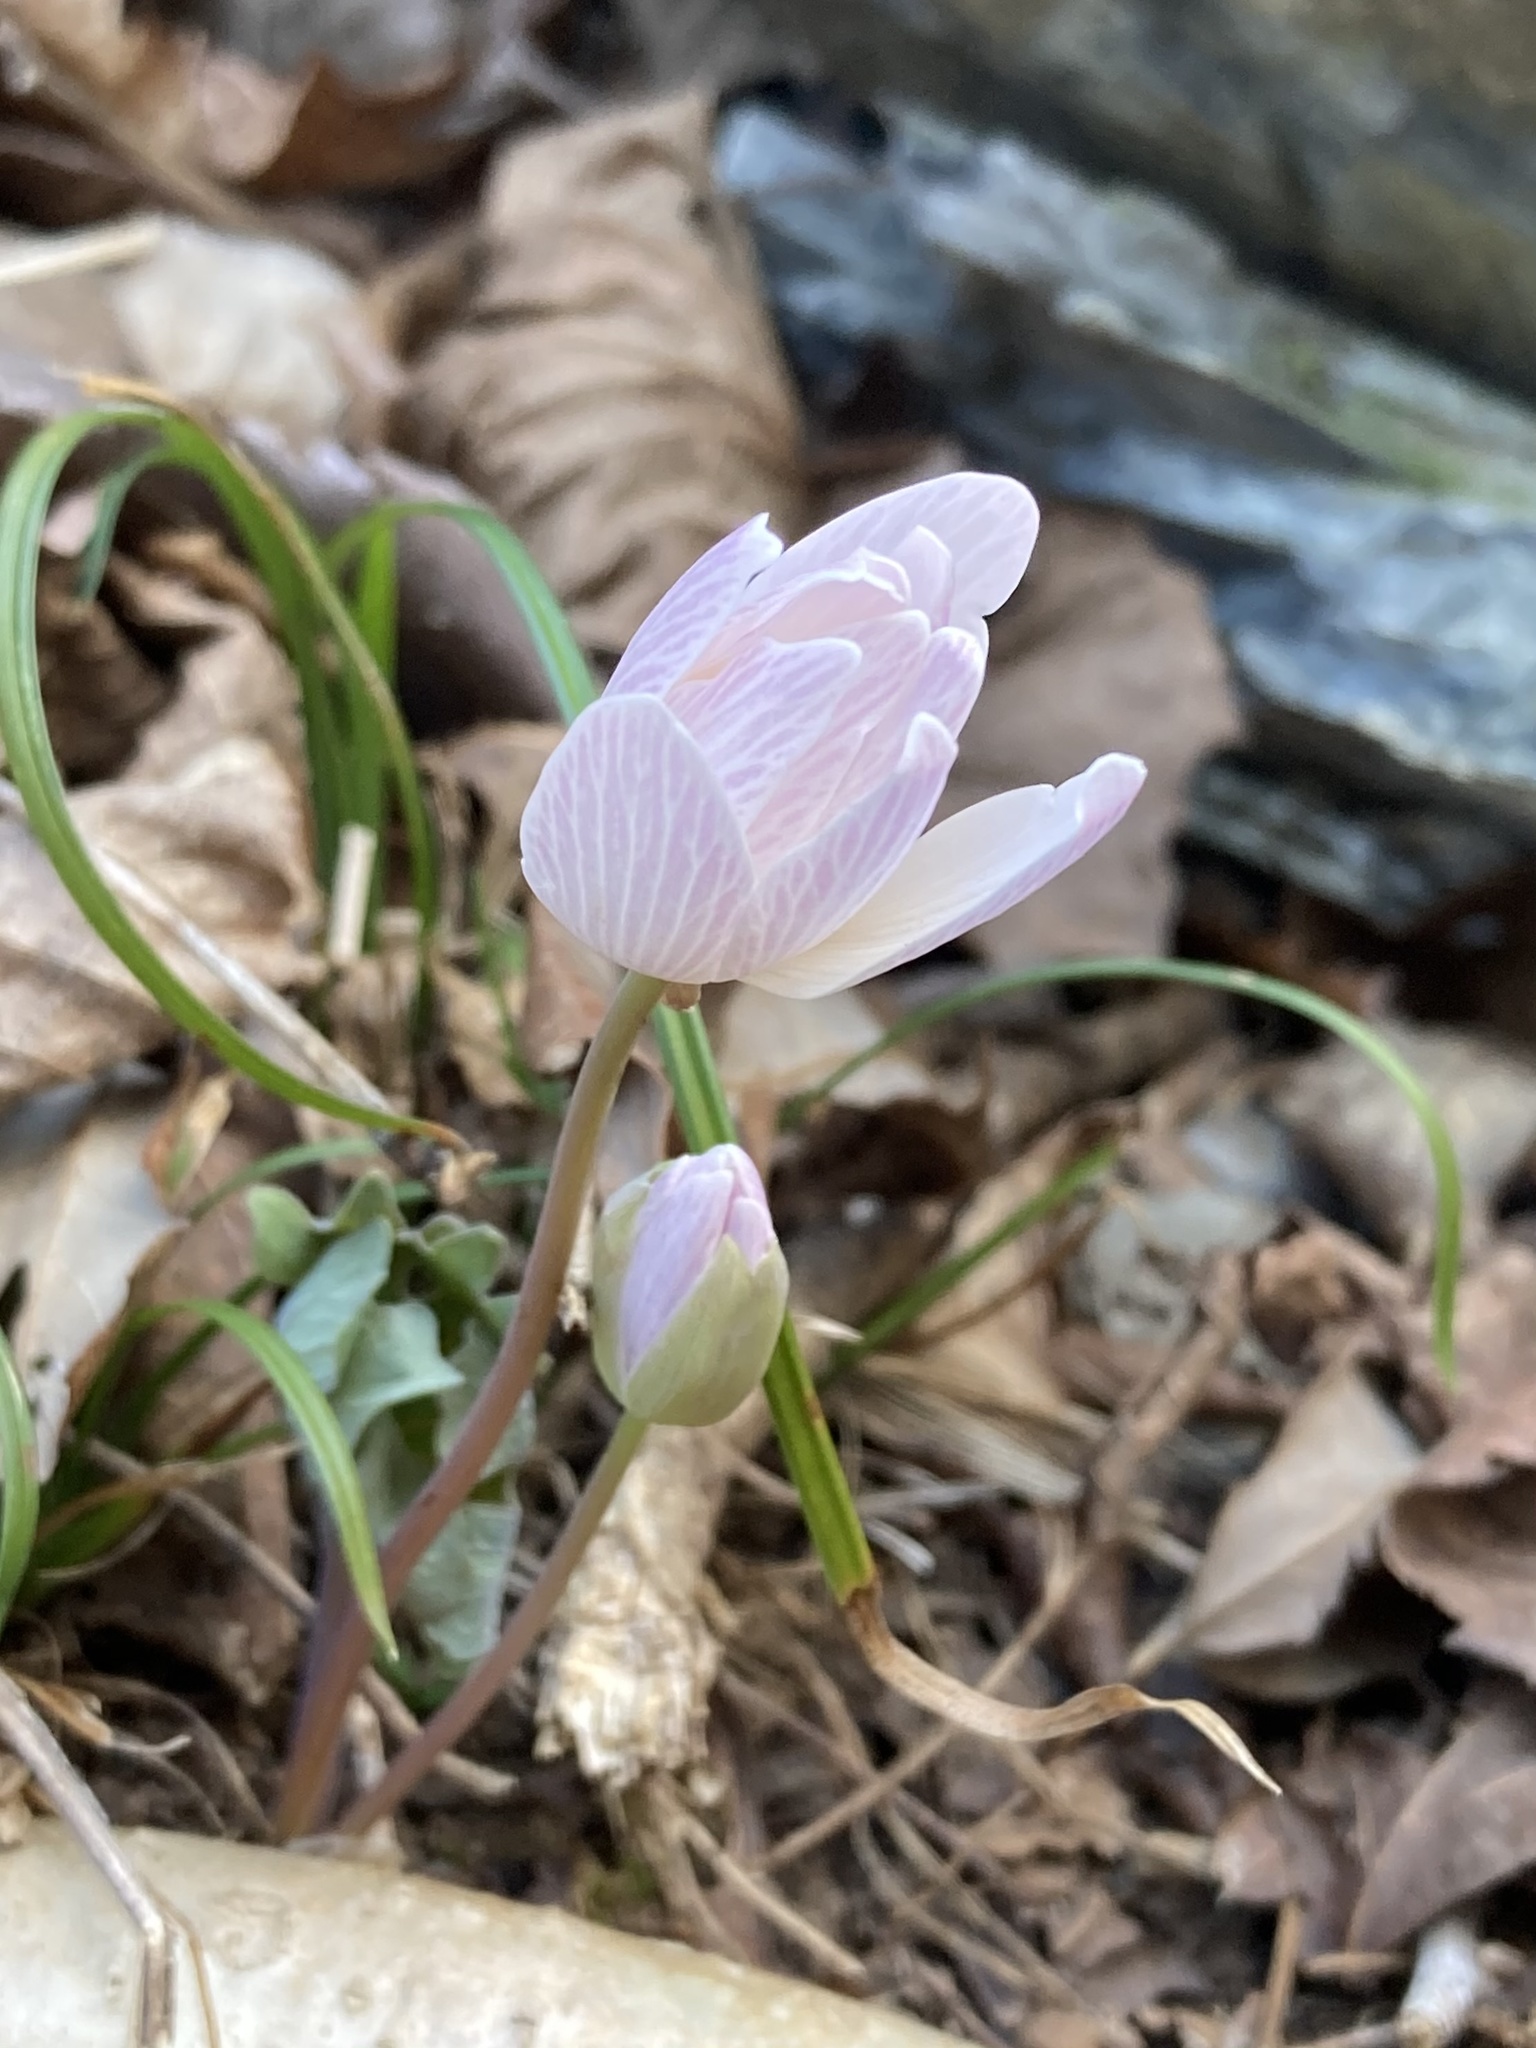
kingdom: Plantae
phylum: Tracheophyta
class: Magnoliopsida
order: Ranunculales
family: Papaveraceae
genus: Sanguinaria
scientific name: Sanguinaria canadensis
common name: Bloodroot
